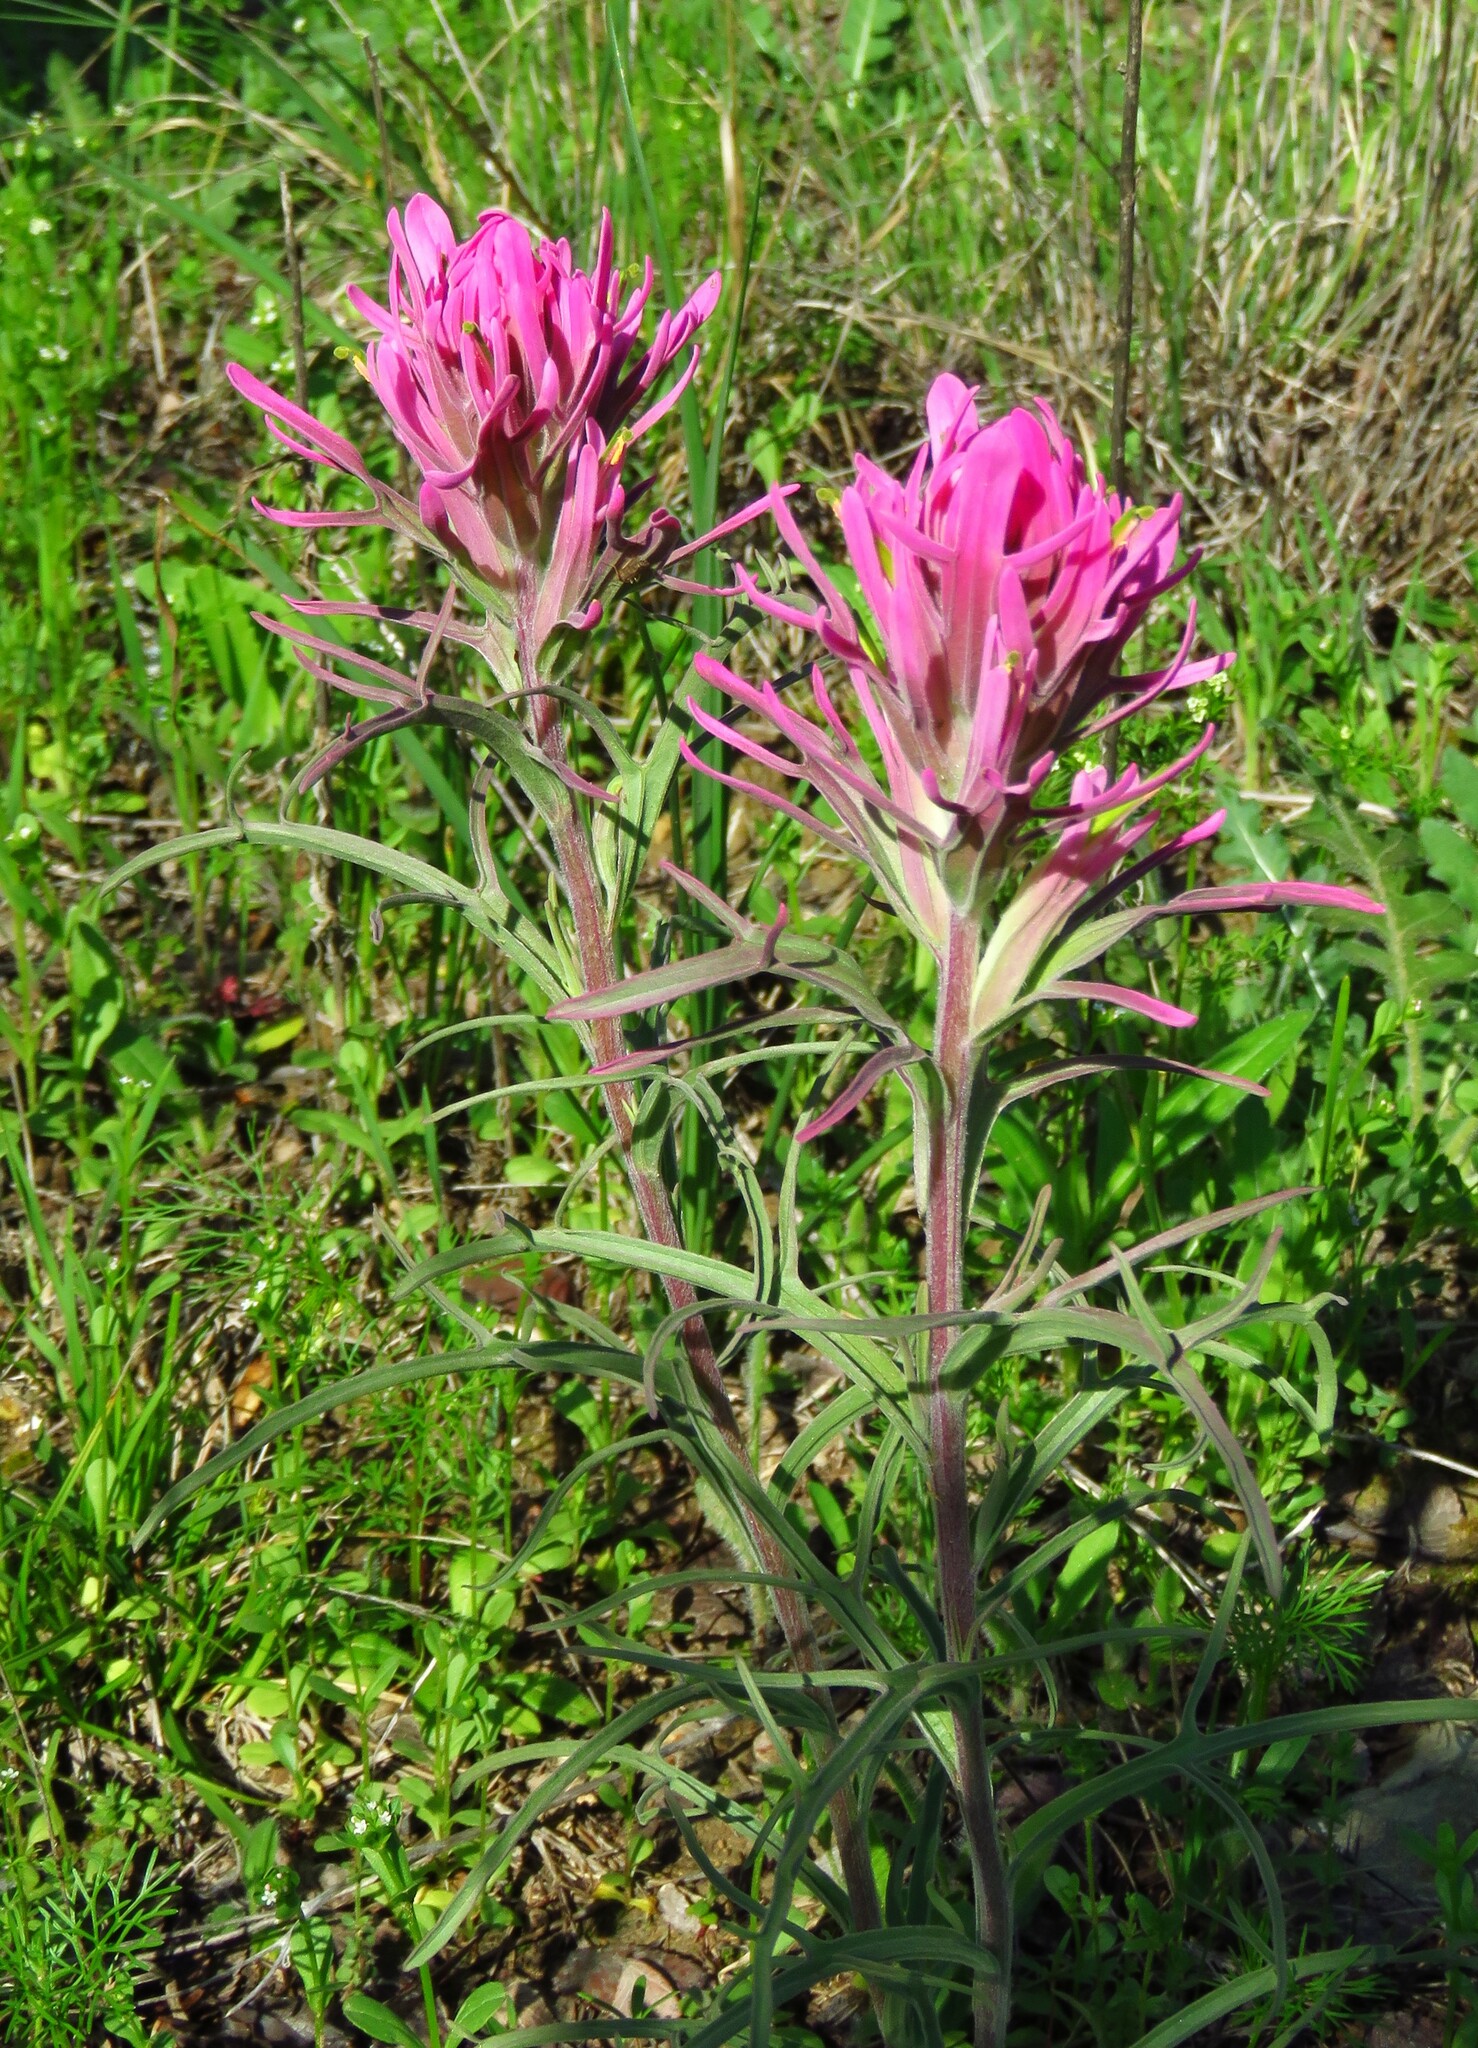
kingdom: Plantae
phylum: Tracheophyta
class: Magnoliopsida
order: Lamiales
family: Orobanchaceae
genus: Castilleja
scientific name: Castilleja purpurea
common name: Plains paintbrush
